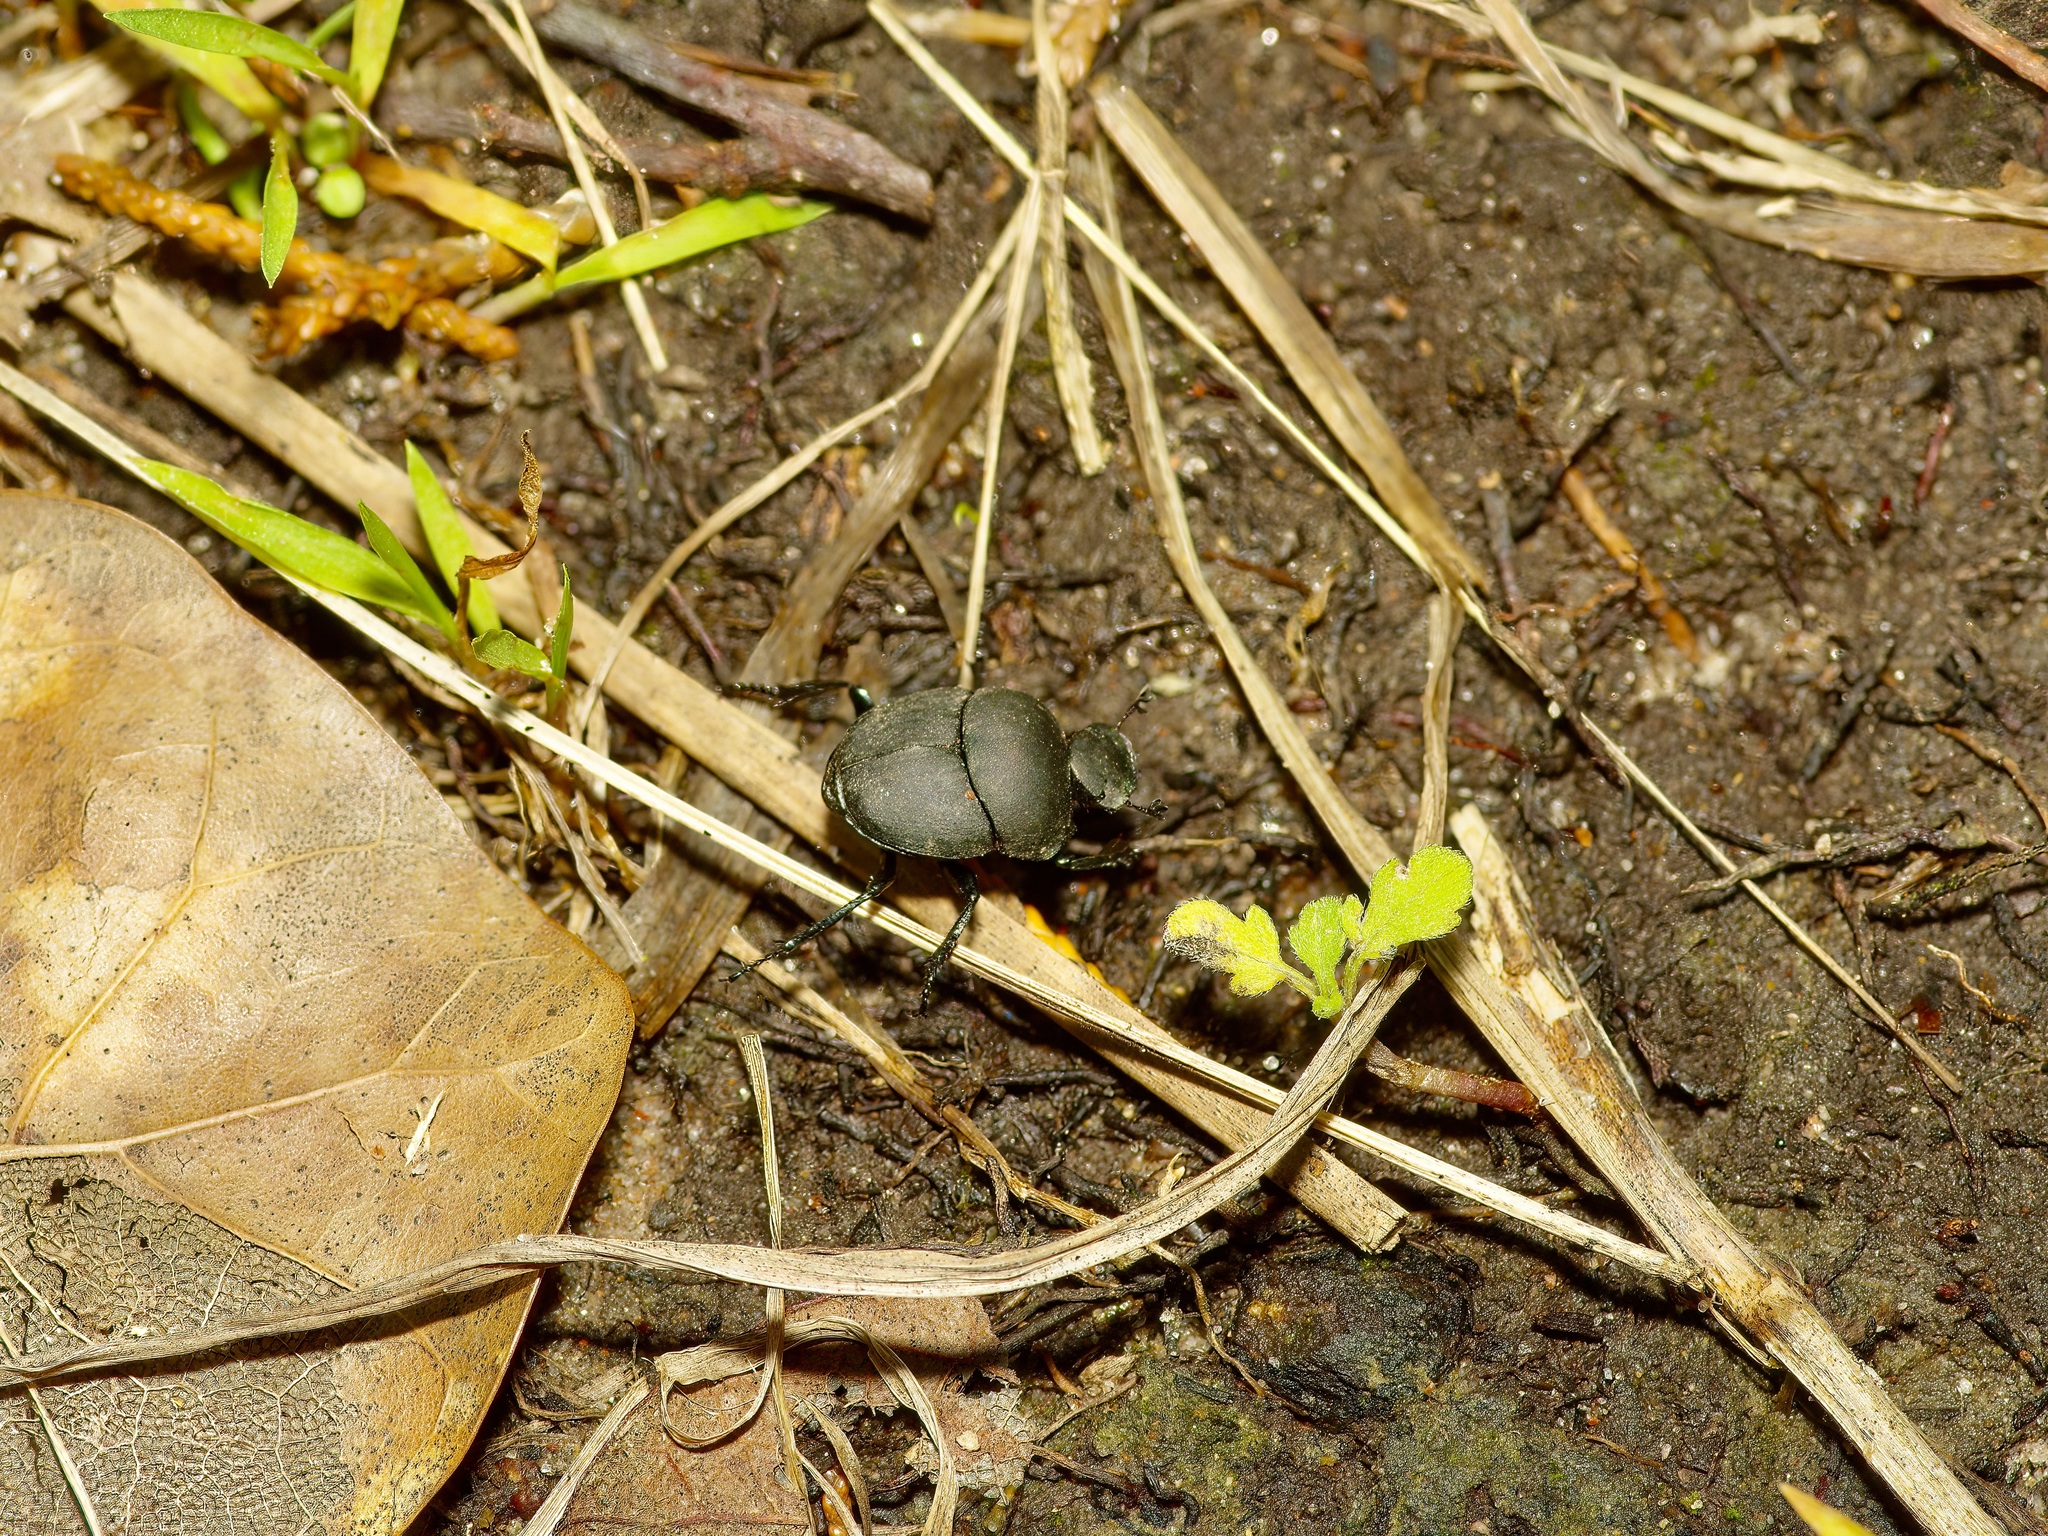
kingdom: Animalia
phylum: Arthropoda
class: Insecta
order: Coleoptera
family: Scarabaeidae
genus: Canthon
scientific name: Canthon imitator
